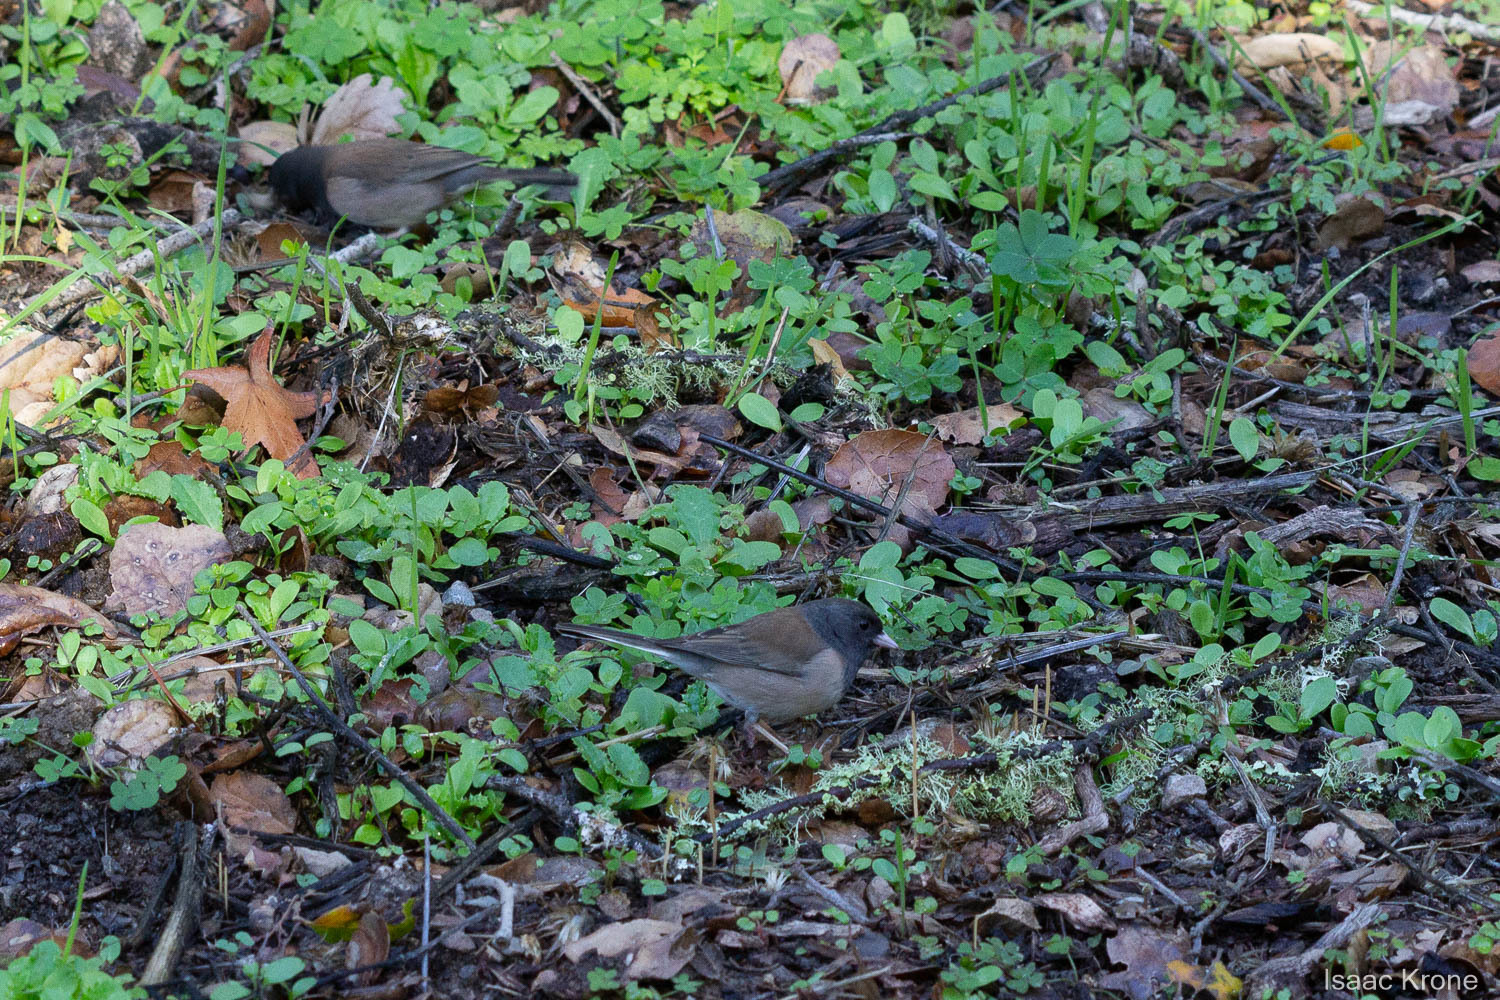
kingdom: Animalia
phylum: Chordata
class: Aves
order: Passeriformes
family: Passerellidae
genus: Junco
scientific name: Junco hyemalis
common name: Dark-eyed junco
